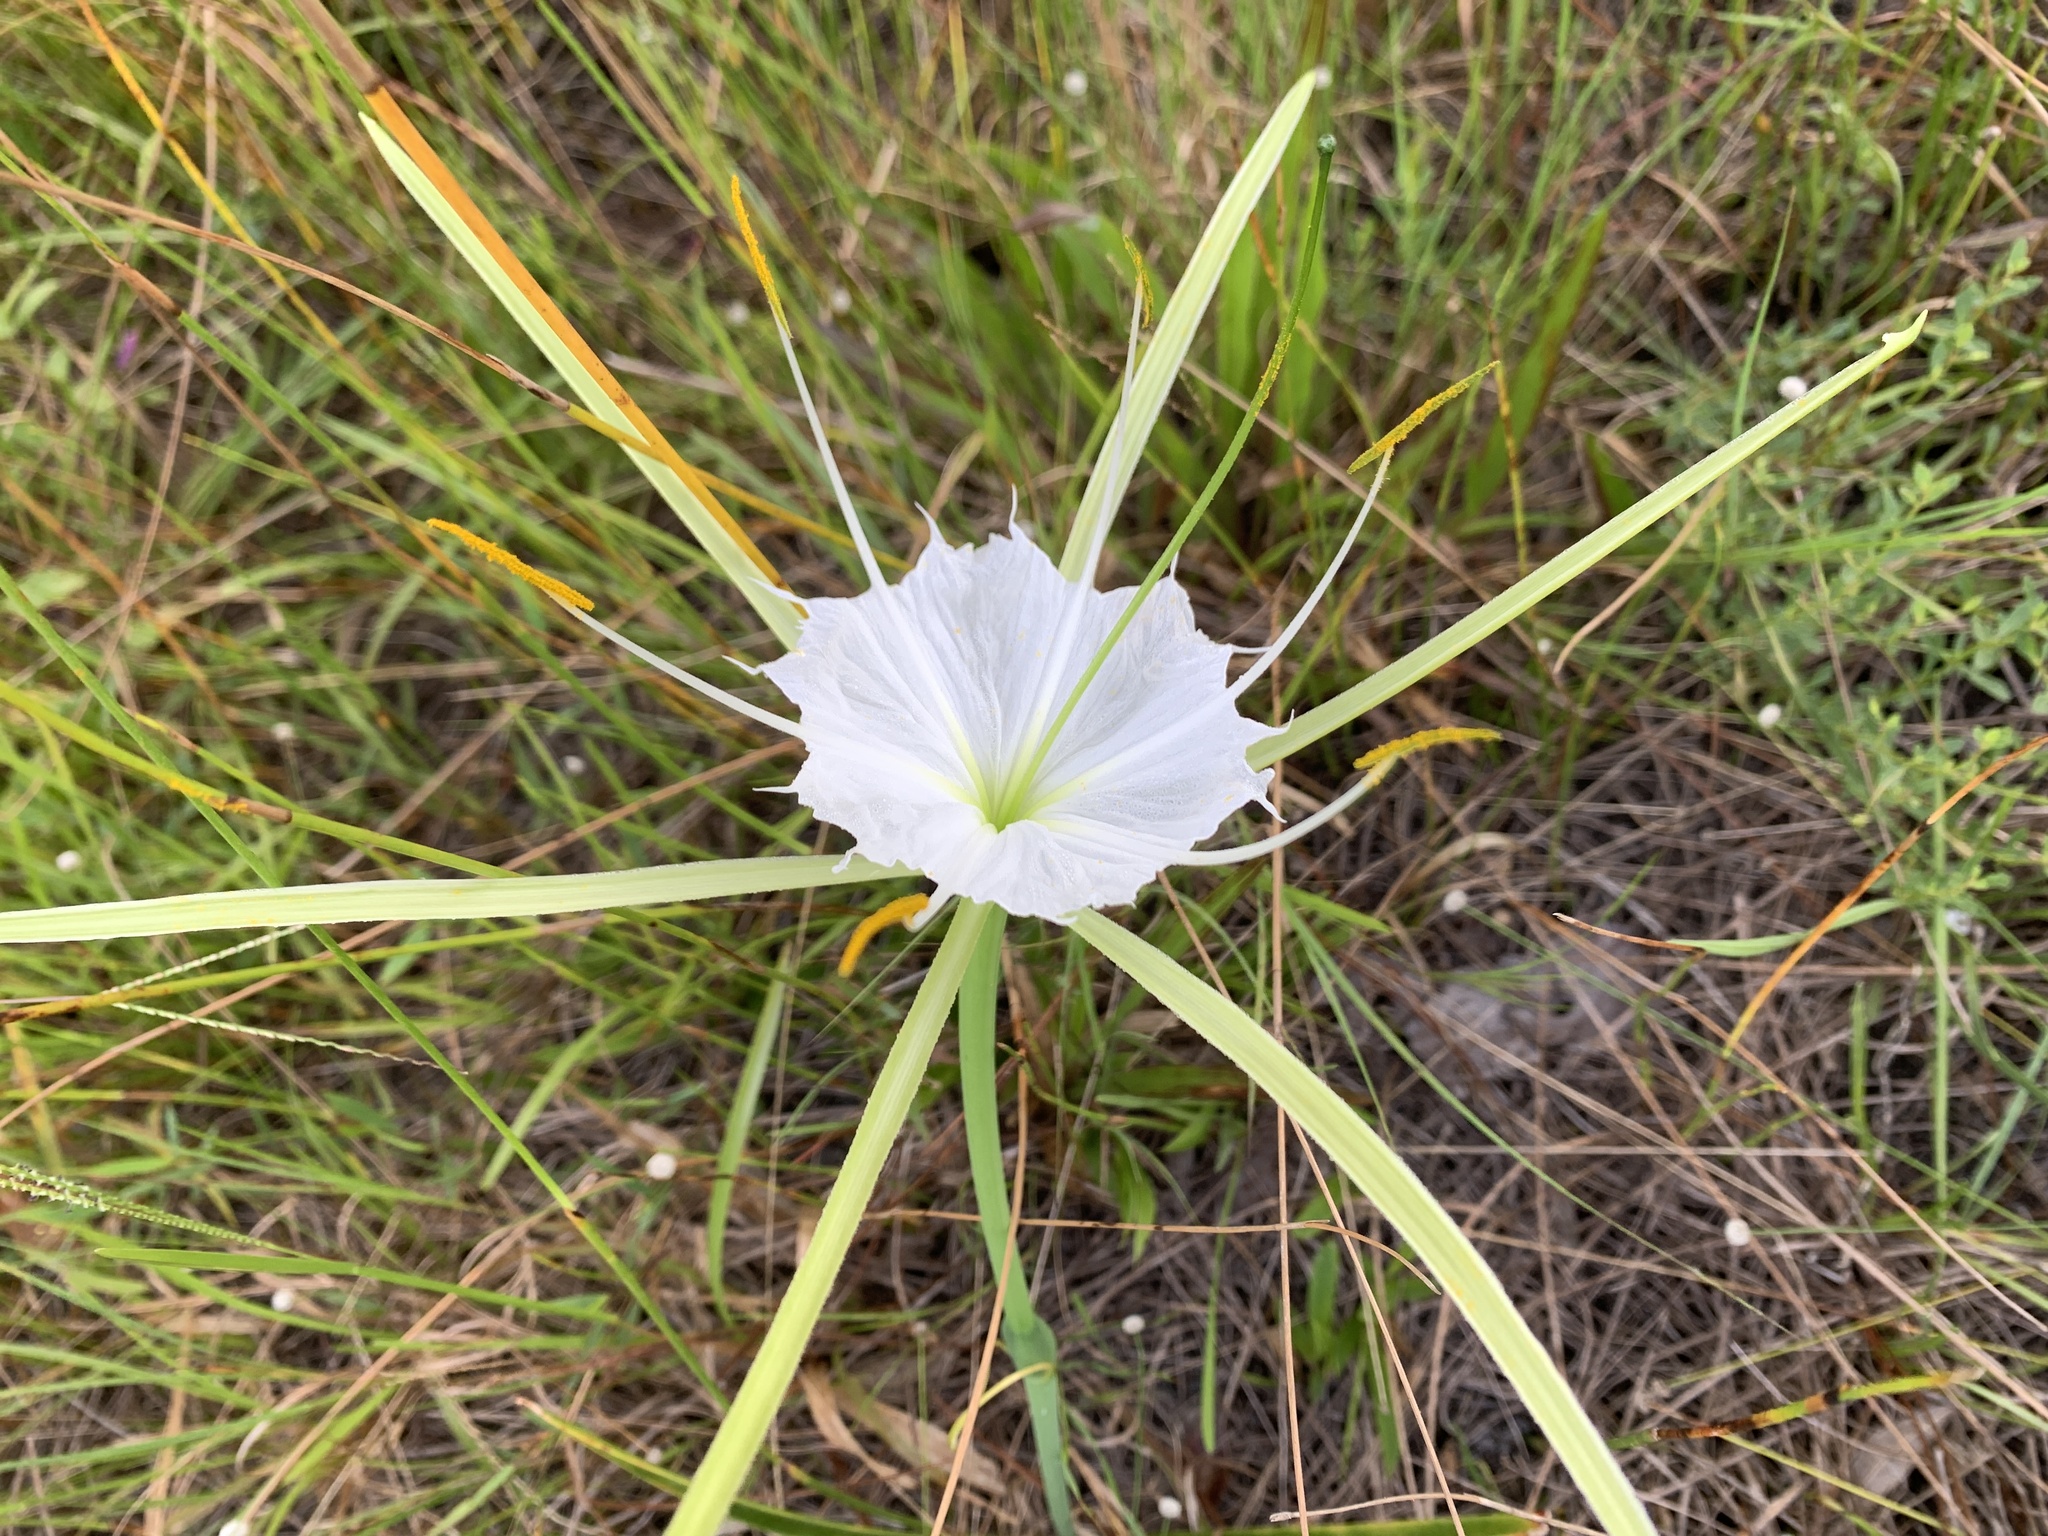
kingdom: Plantae
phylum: Tracheophyta
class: Liliopsida
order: Asparagales
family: Amaryllidaceae
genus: Hymenocallis
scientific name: Hymenocallis palmeri
